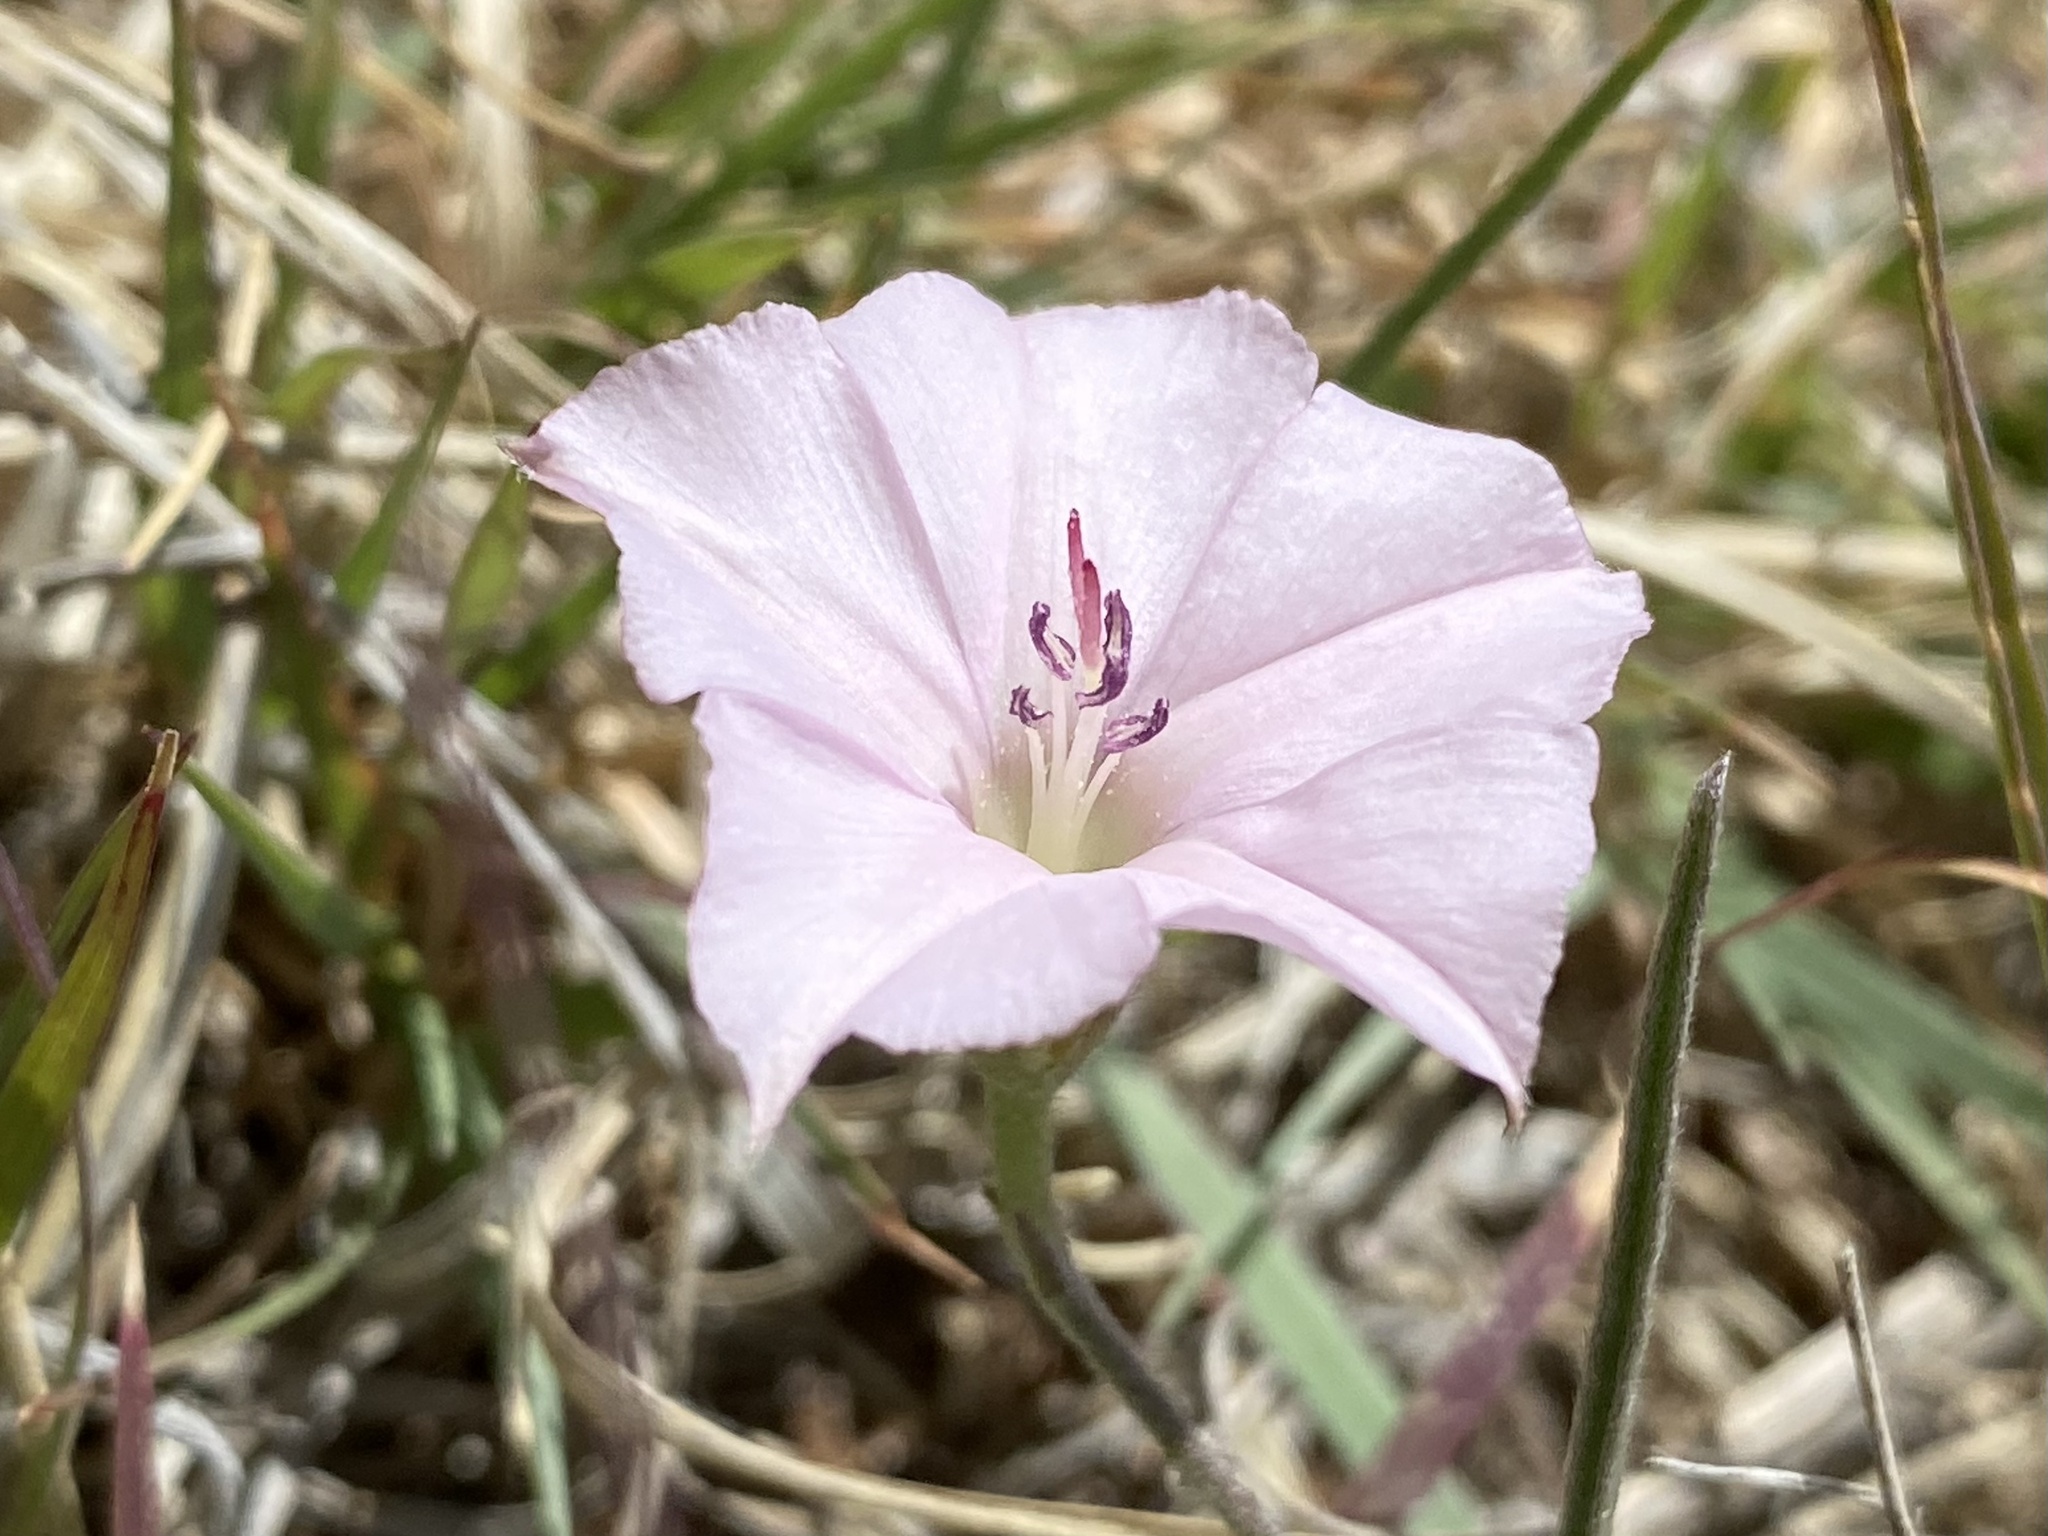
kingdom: Plantae
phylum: Tracheophyta
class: Magnoliopsida
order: Solanales
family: Convolvulaceae
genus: Convolvulus
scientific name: Convolvulus equitans
